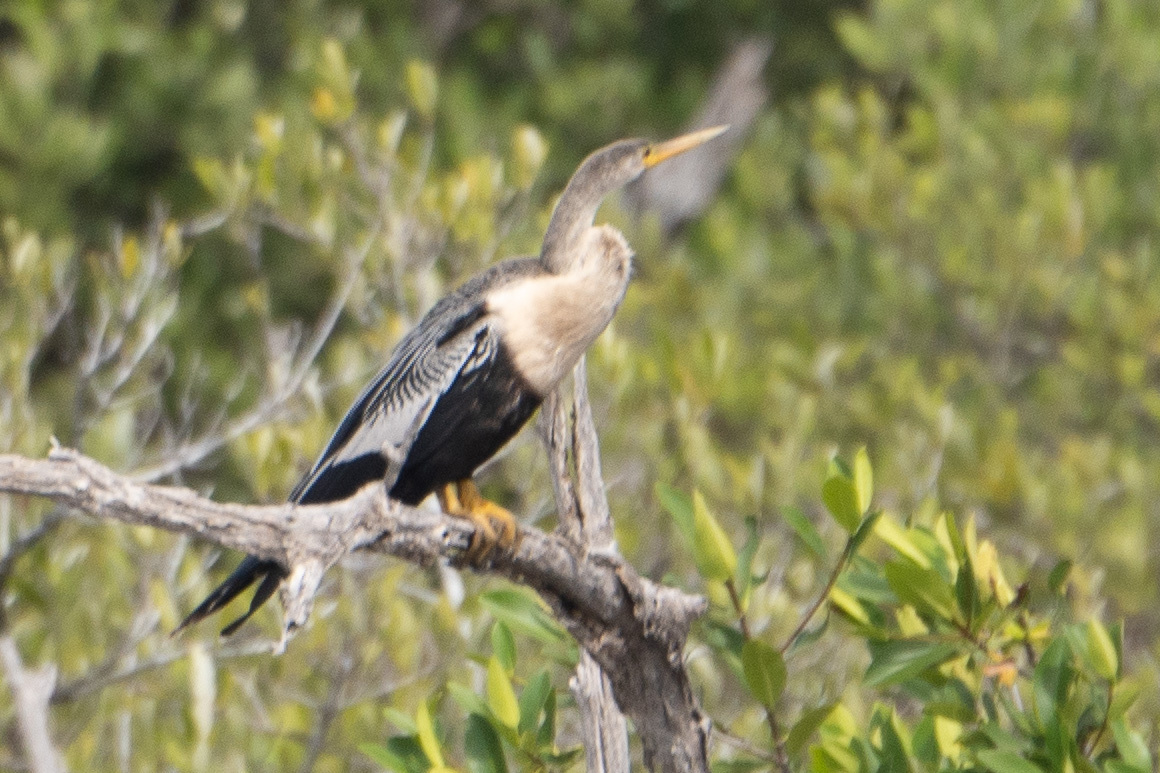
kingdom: Animalia
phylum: Chordata
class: Aves
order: Suliformes
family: Anhingidae
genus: Anhinga
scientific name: Anhinga anhinga
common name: Anhinga
